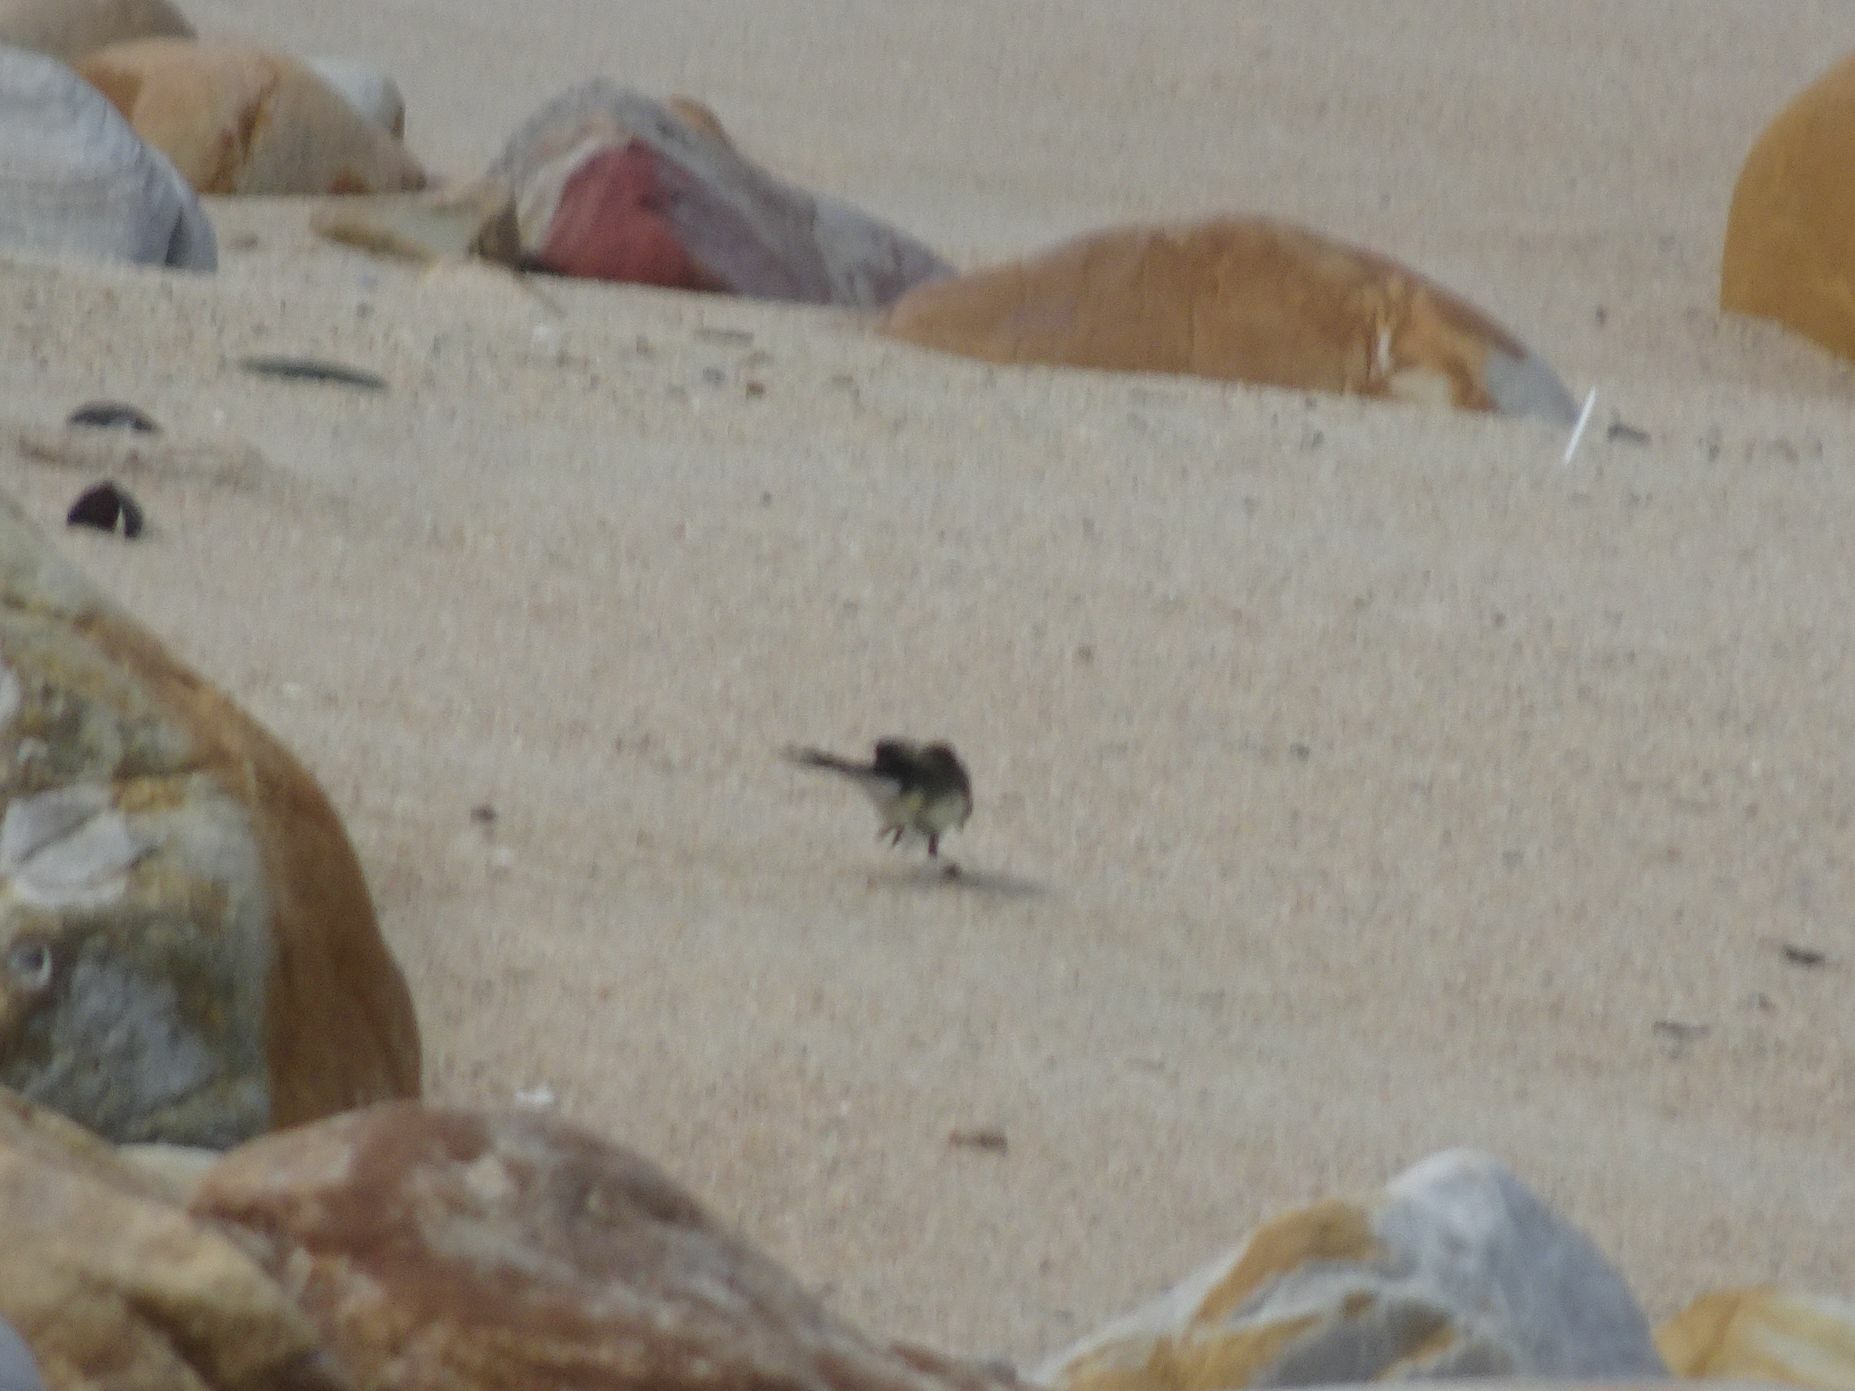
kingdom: Animalia
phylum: Chordata
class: Aves
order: Passeriformes
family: Motacillidae
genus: Motacilla
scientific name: Motacilla capensis
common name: Cape wagtail
